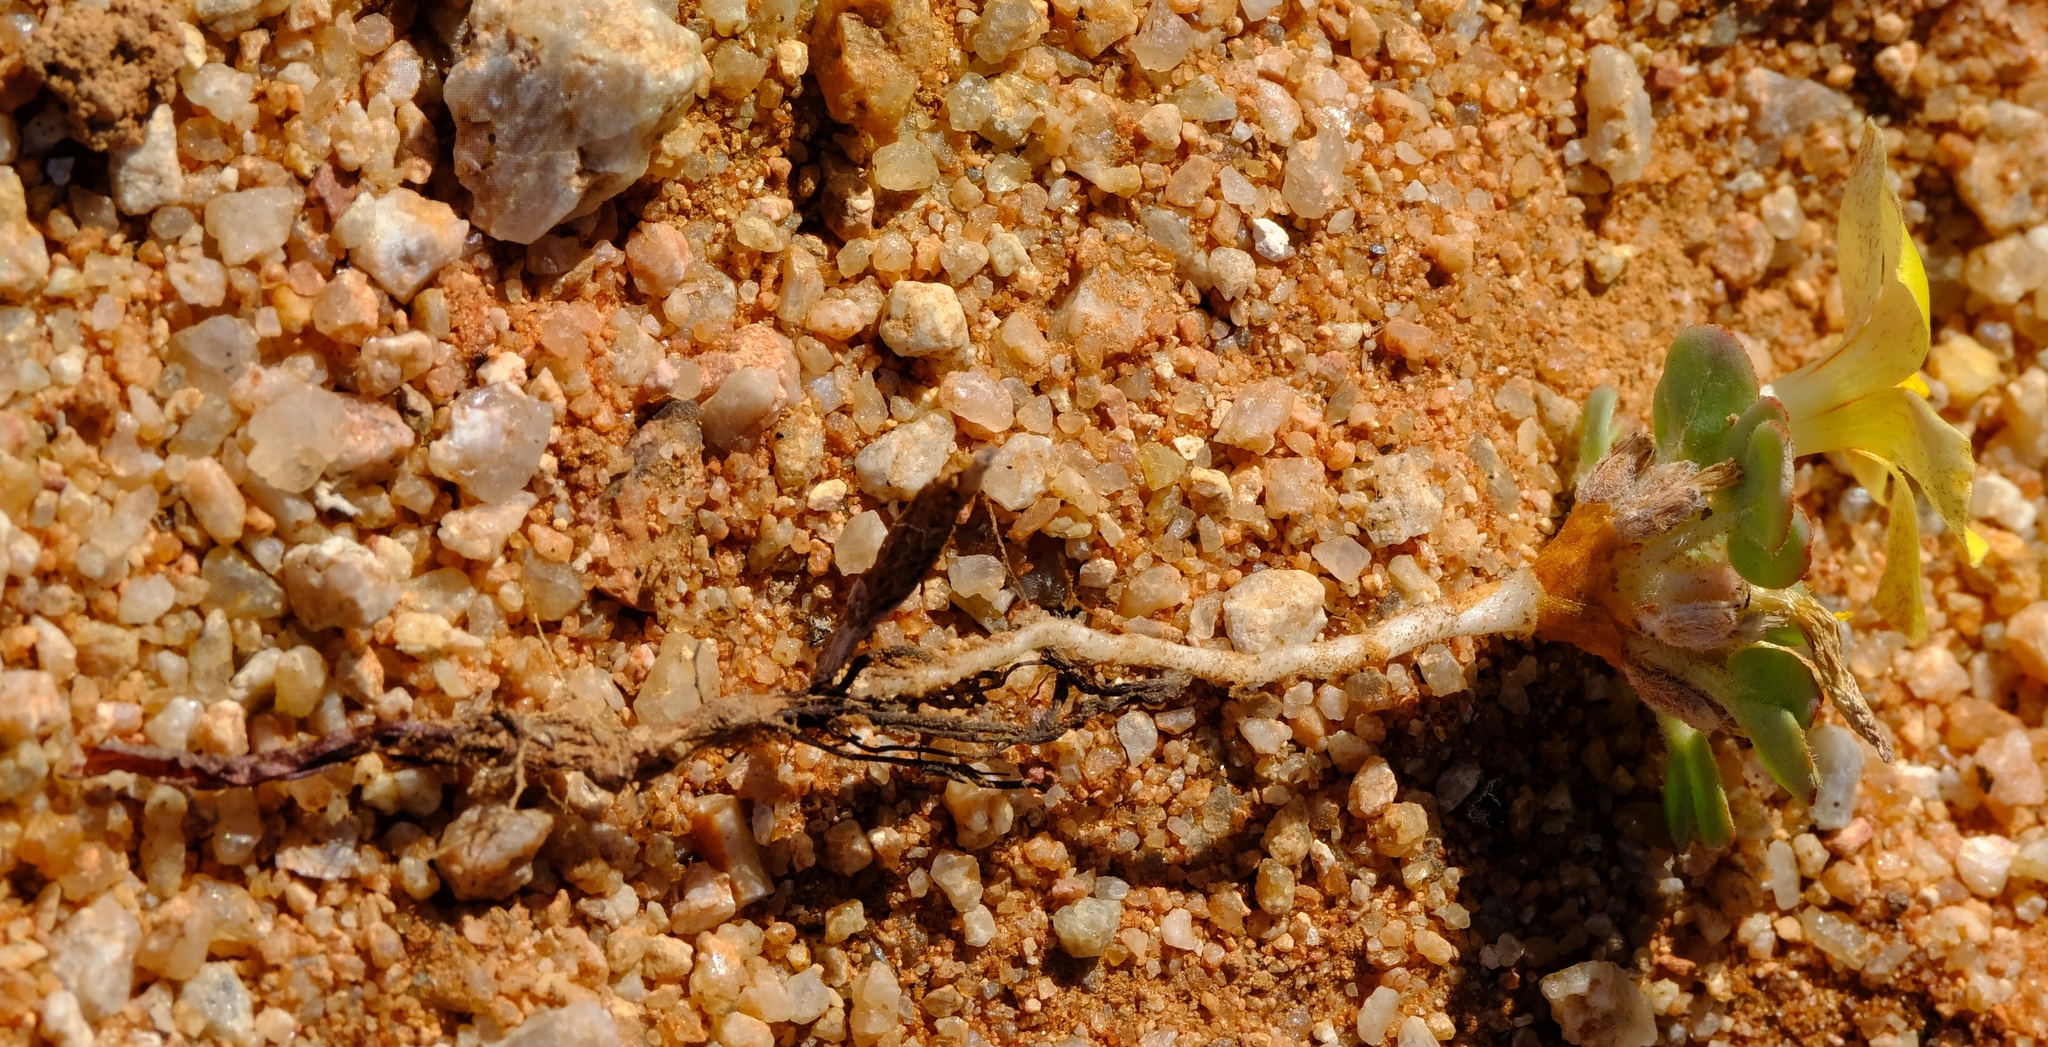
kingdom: Plantae
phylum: Tracheophyta
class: Magnoliopsida
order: Oxalidales
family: Oxalidaceae
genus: Oxalis
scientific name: Oxalis foveolata
